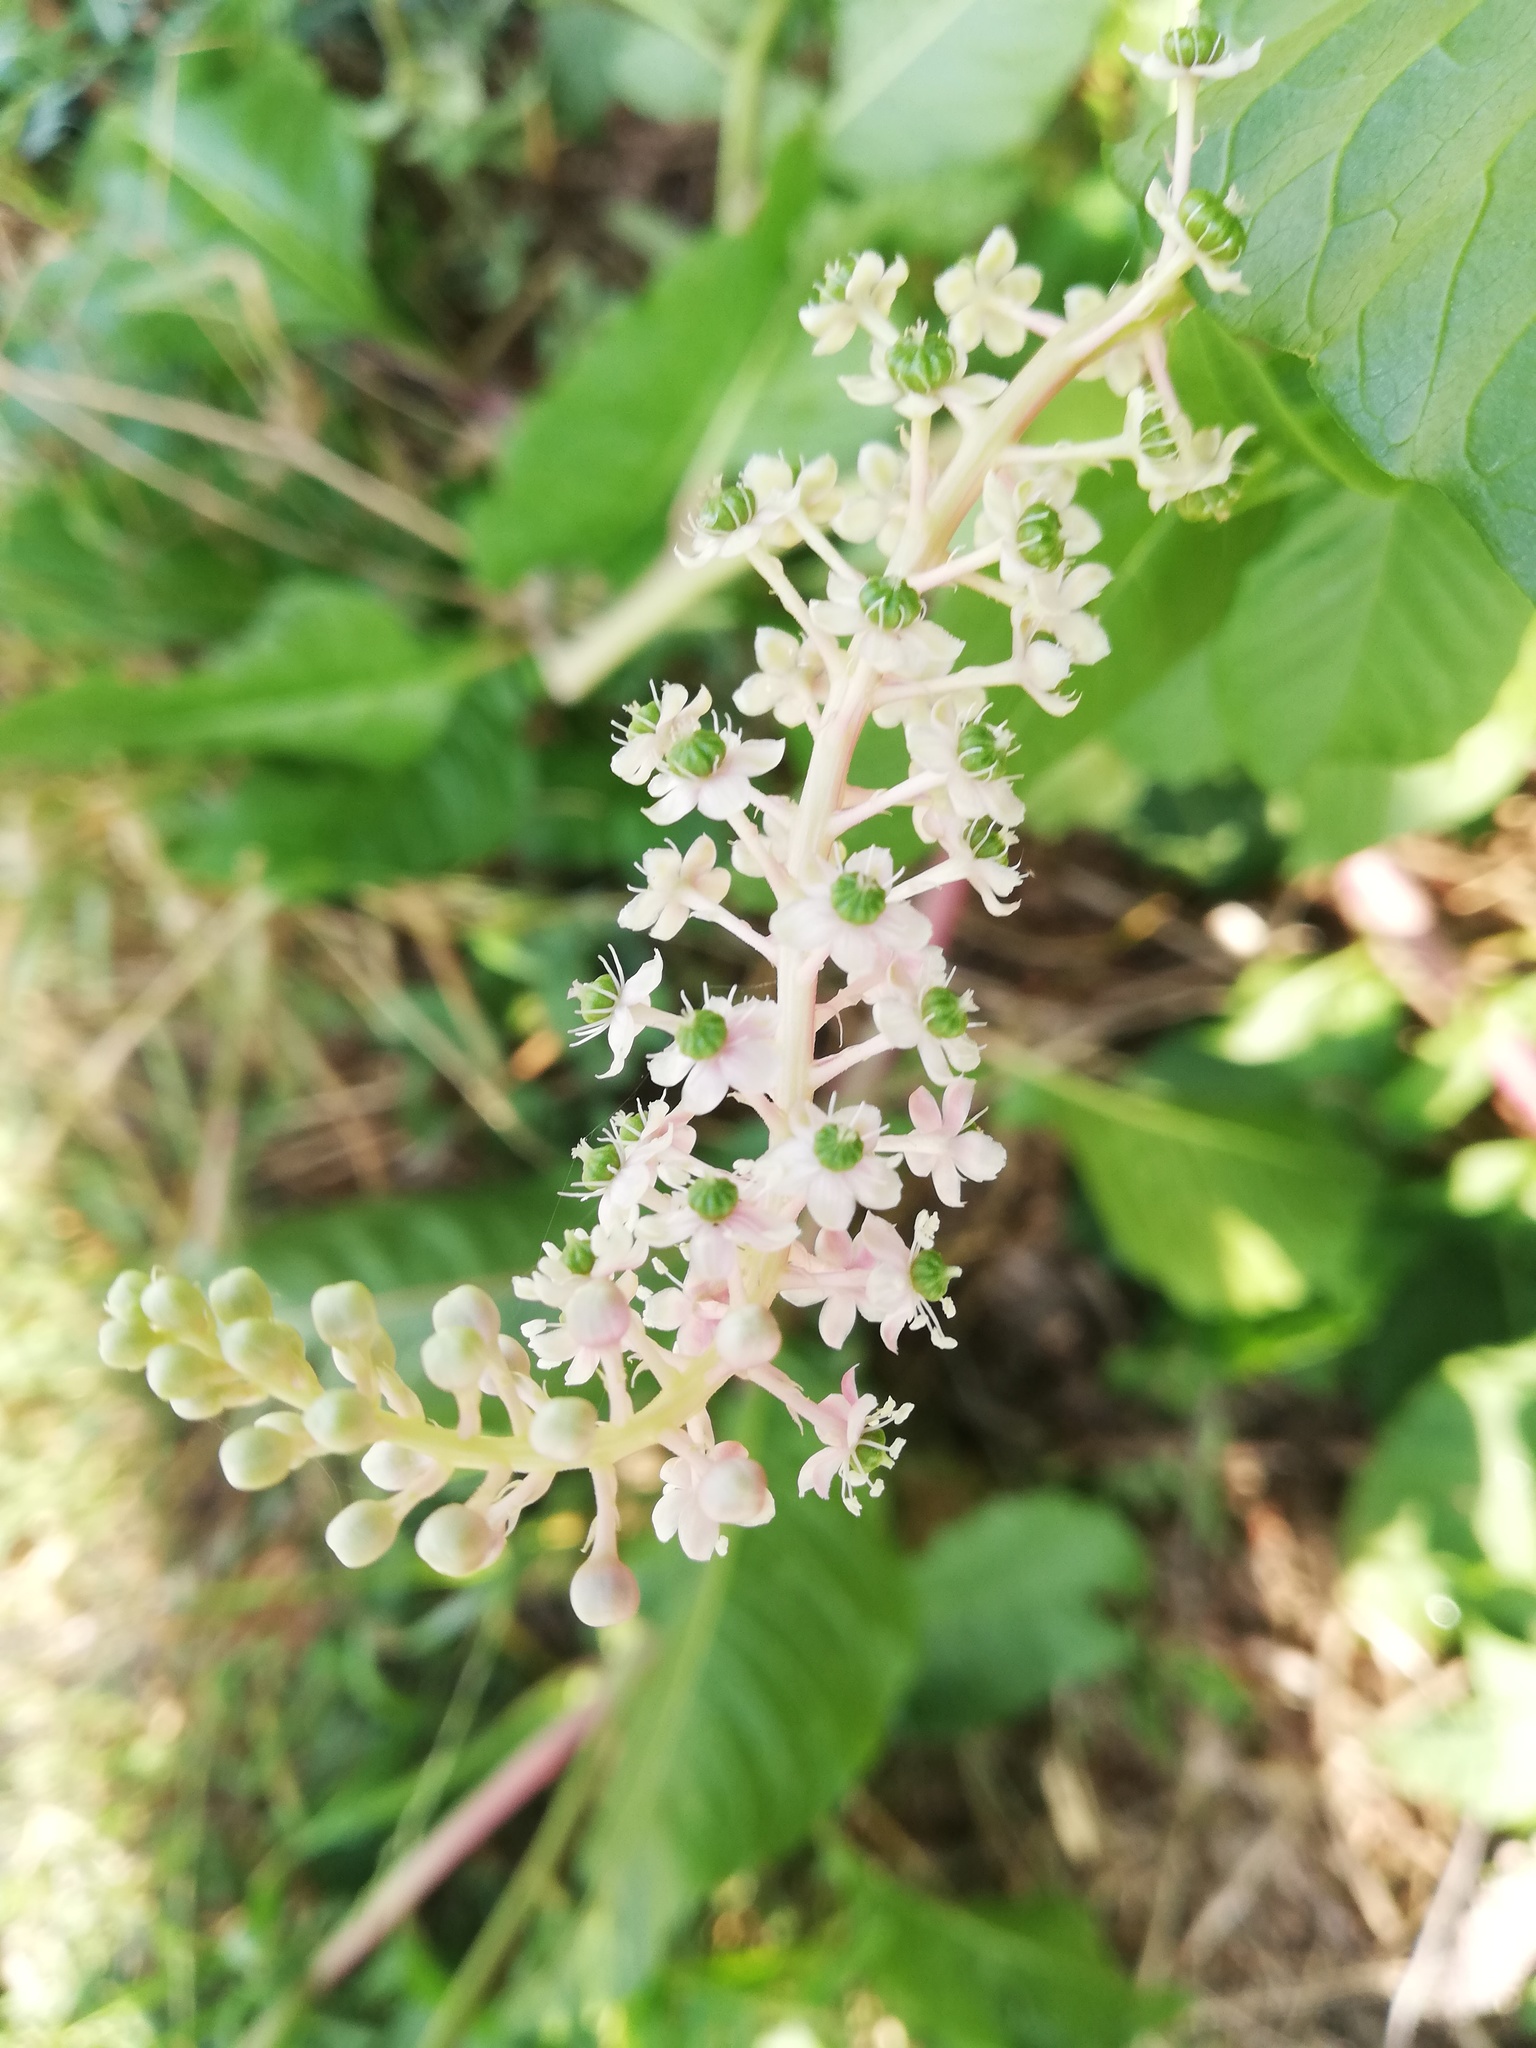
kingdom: Plantae
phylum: Tracheophyta
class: Magnoliopsida
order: Caryophyllales
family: Phytolaccaceae
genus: Phytolacca
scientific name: Phytolacca americana
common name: American pokeweed
